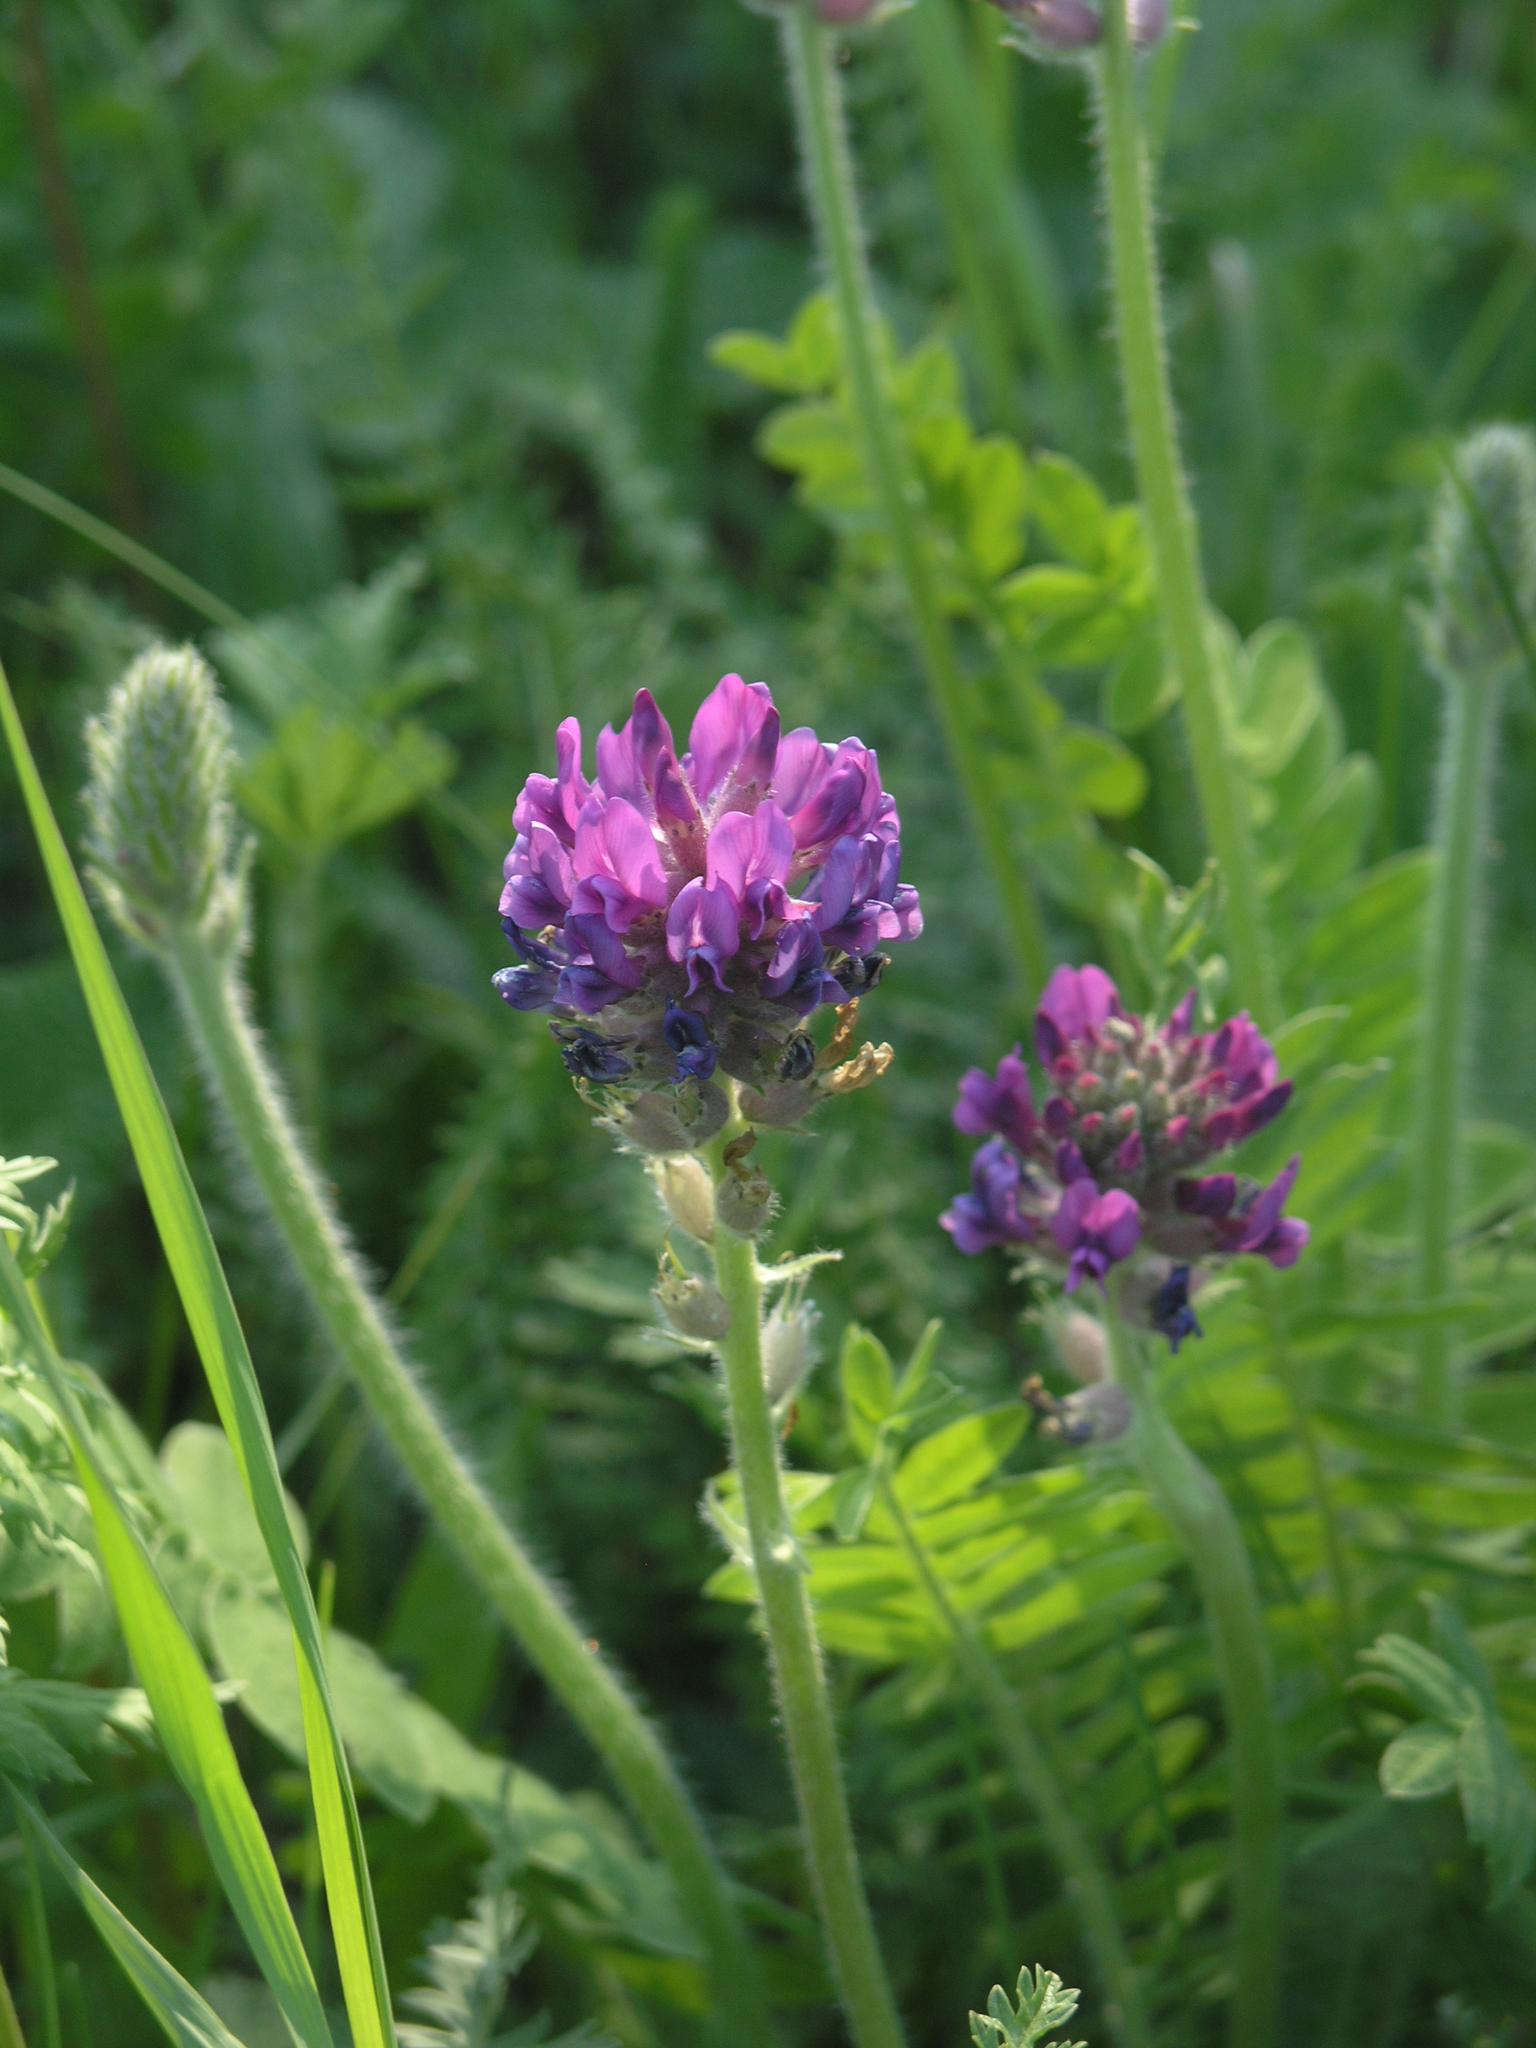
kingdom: Plantae
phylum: Tracheophyta
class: Magnoliopsida
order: Fabales
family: Fabaceae
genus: Oxytropis
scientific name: Oxytropis campanulata
